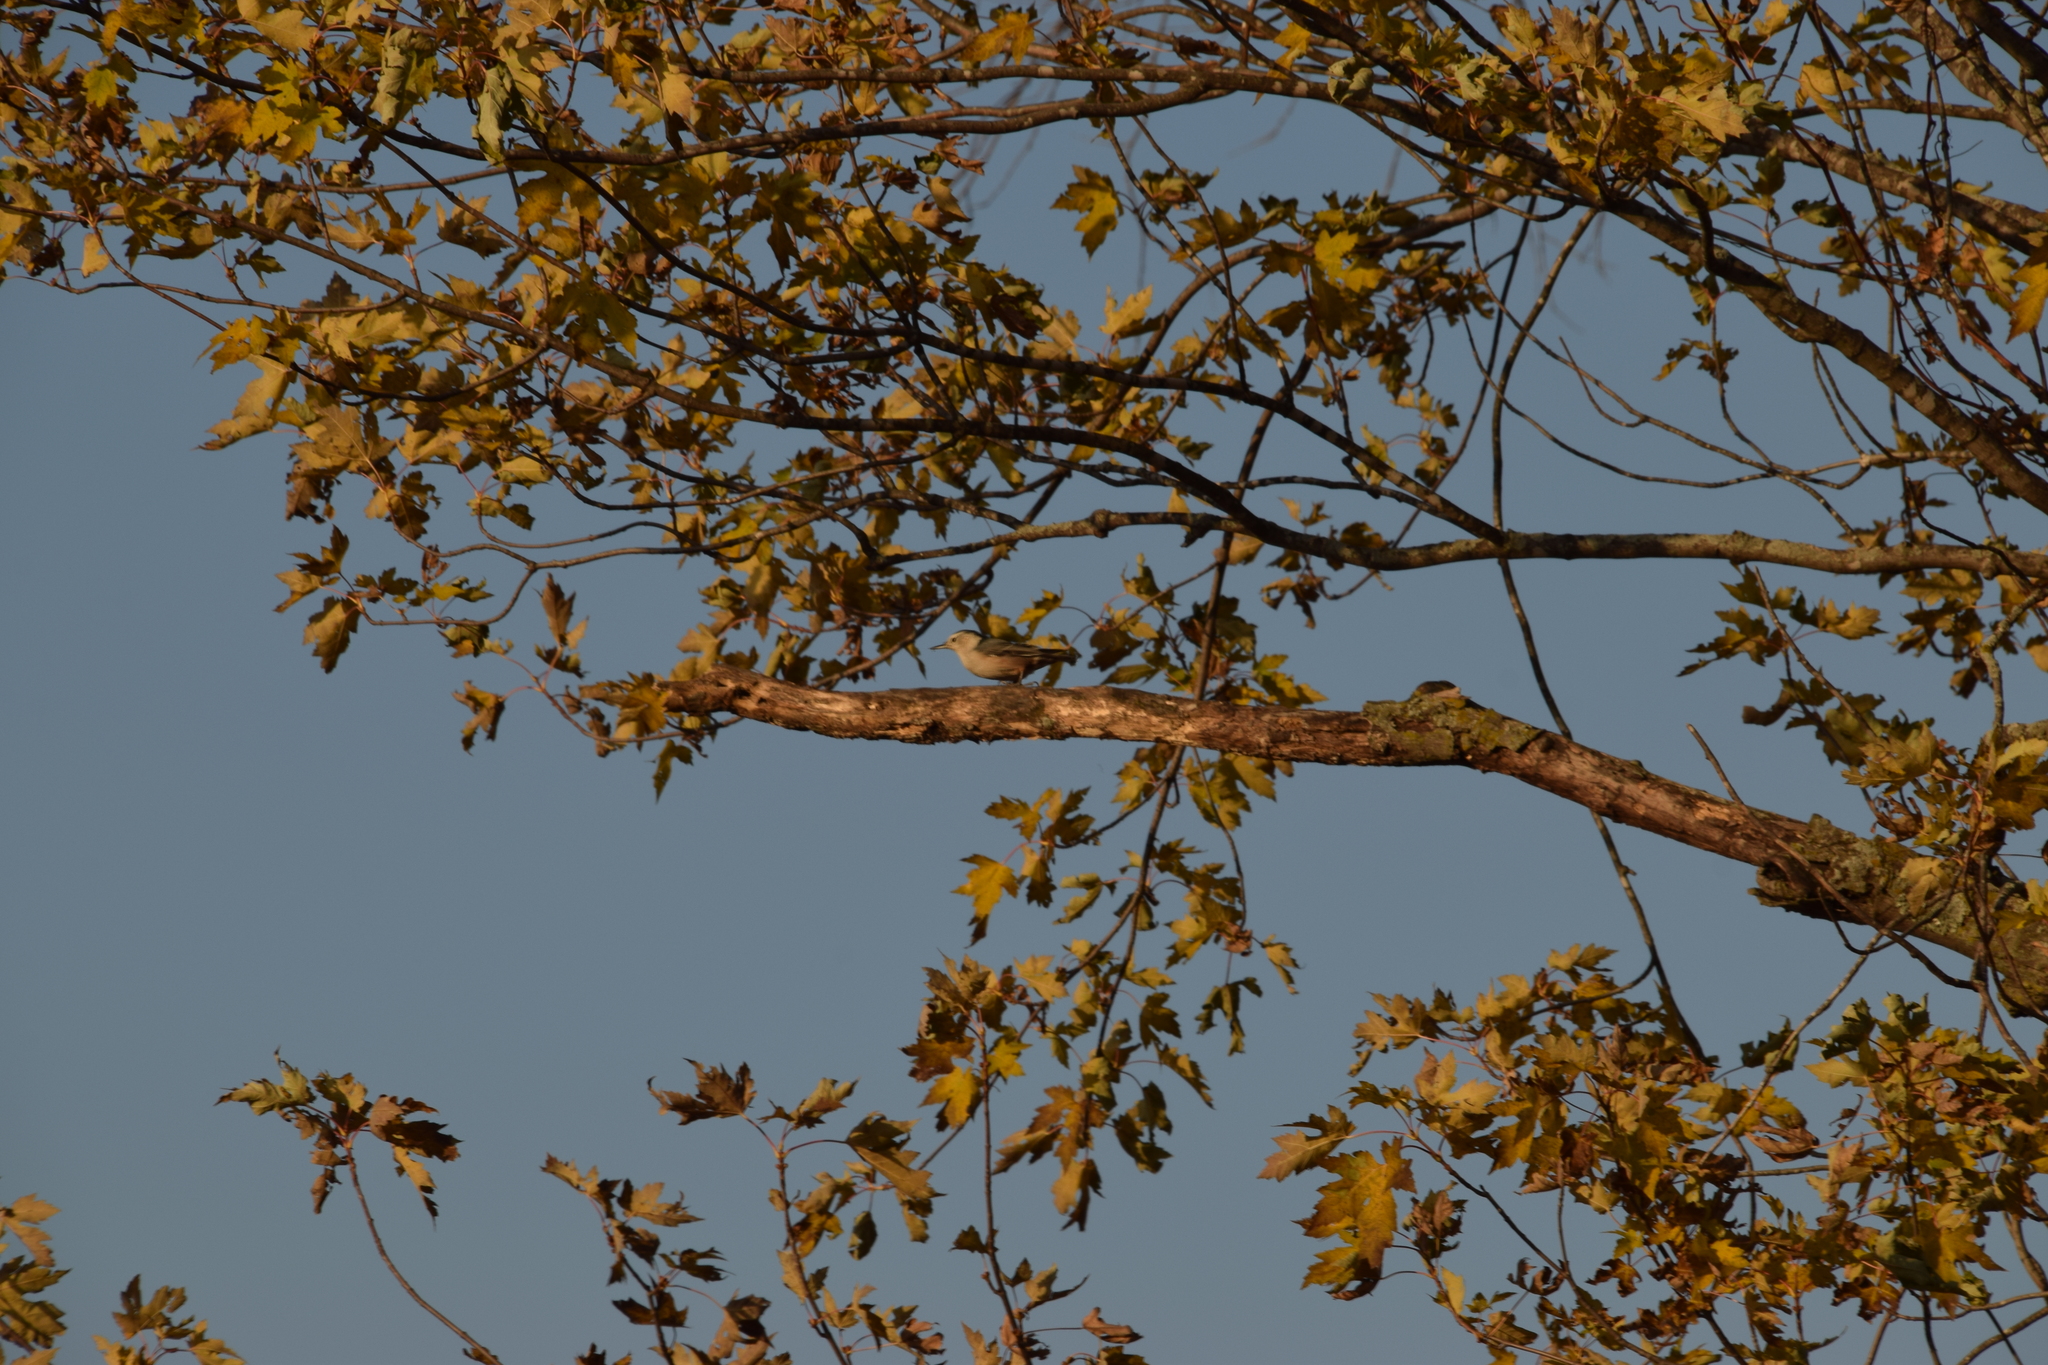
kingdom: Animalia
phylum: Chordata
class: Aves
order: Passeriformes
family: Sittidae
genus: Sitta
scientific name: Sitta carolinensis
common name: White-breasted nuthatch
